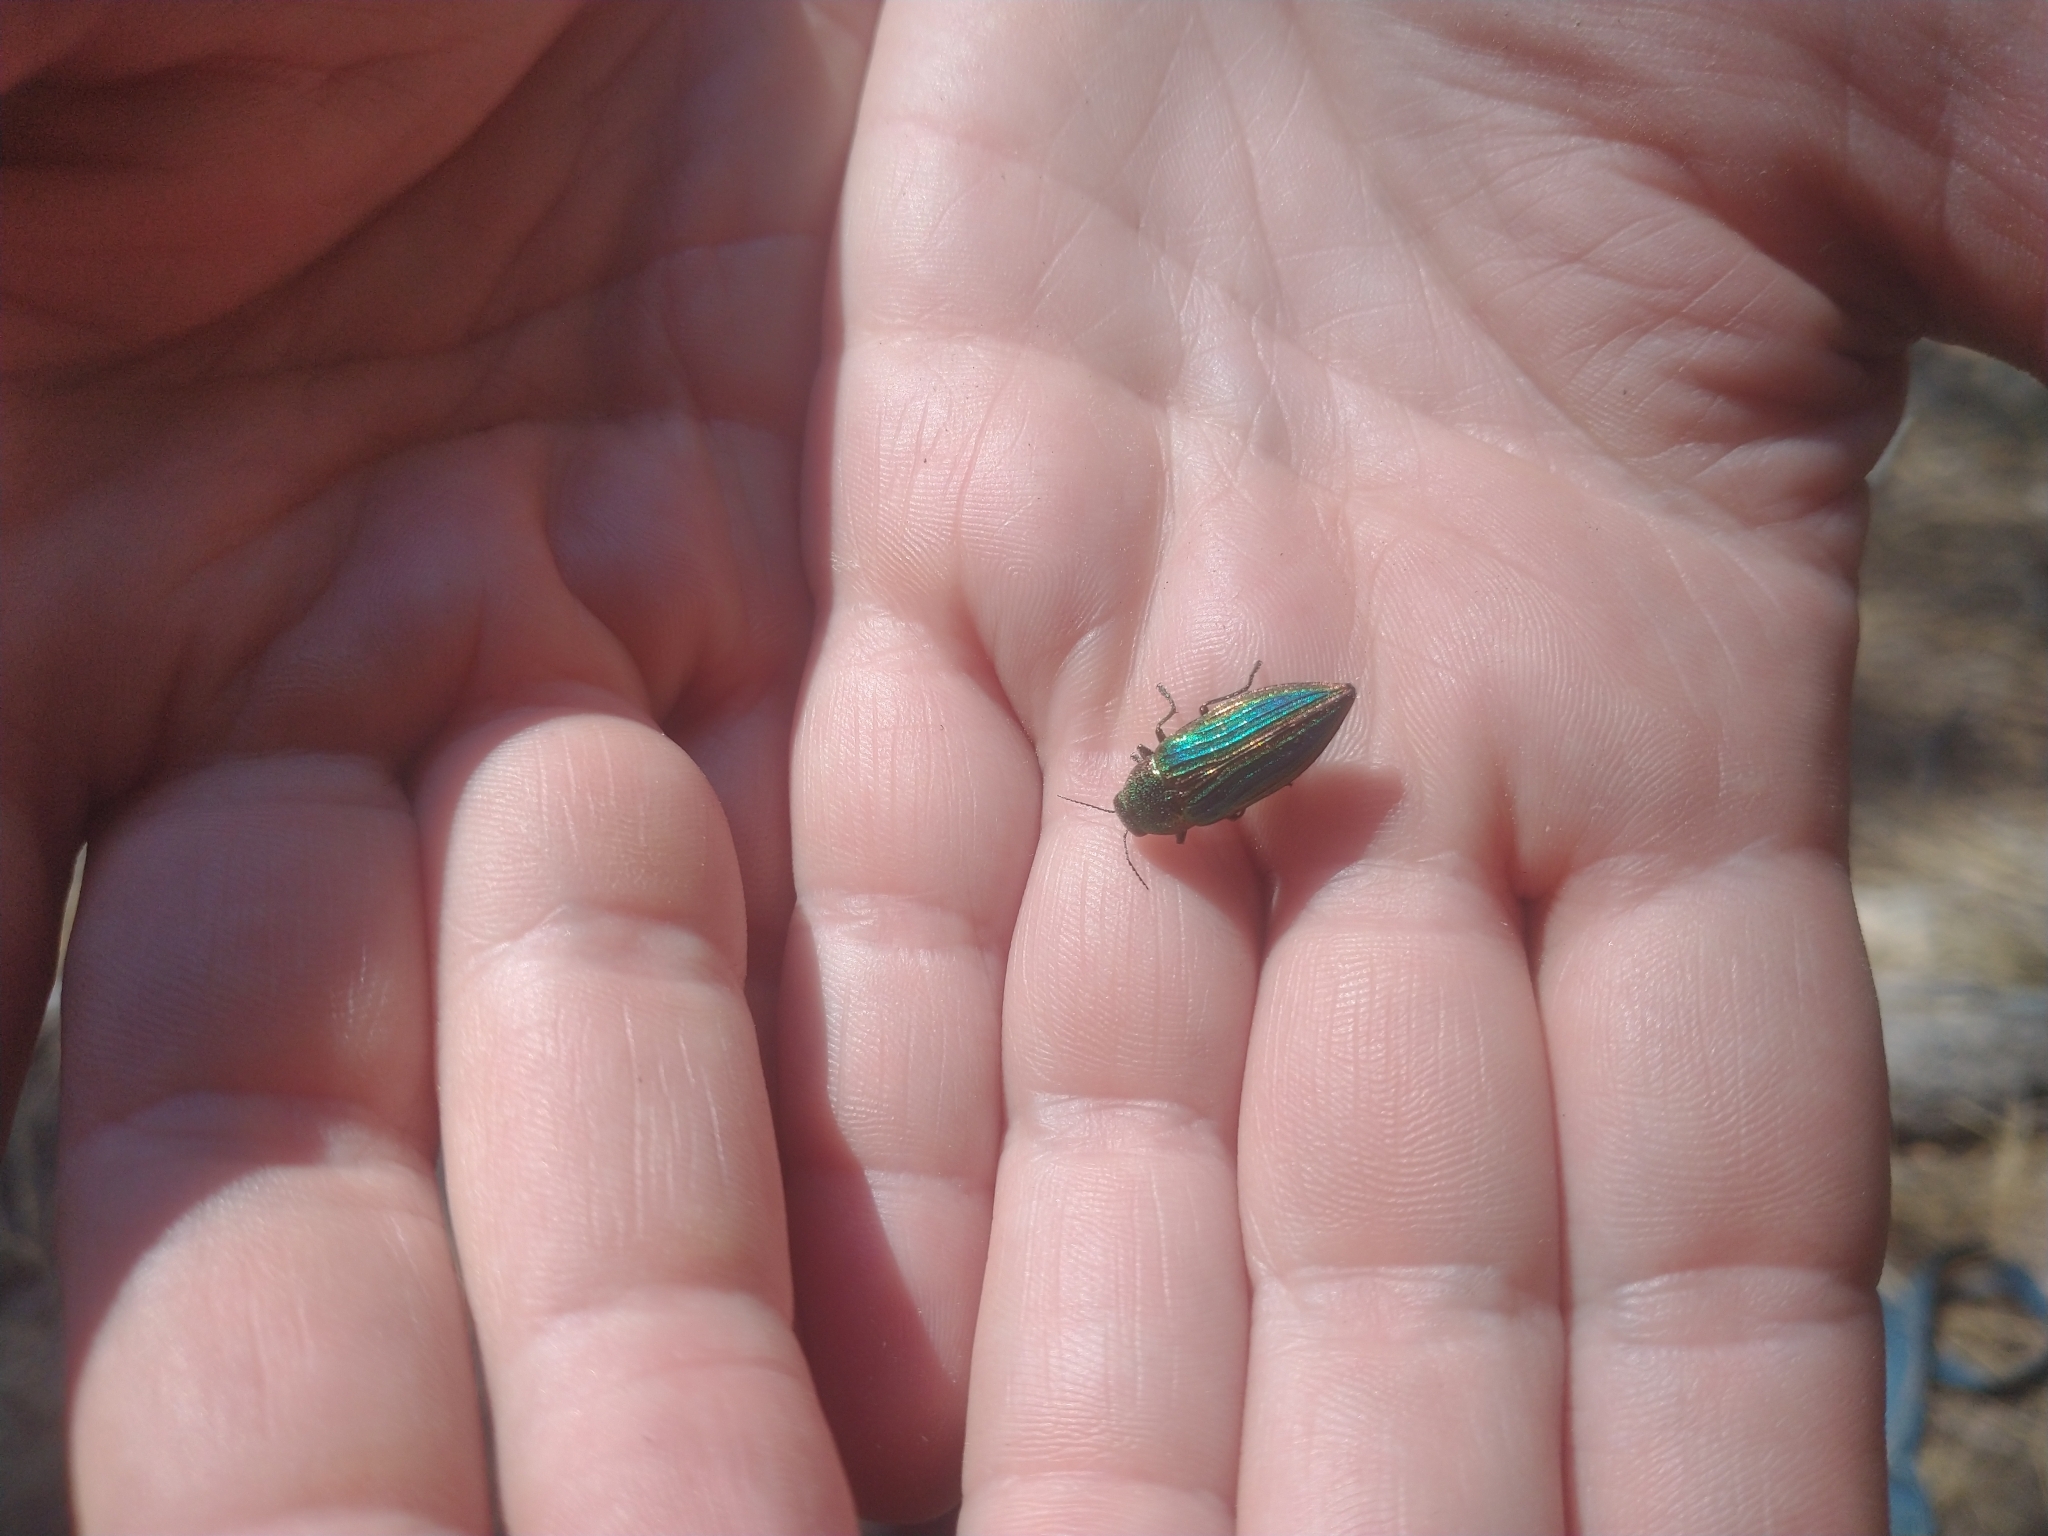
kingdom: Animalia
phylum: Arthropoda
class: Insecta
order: Coleoptera
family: Buprestidae
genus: Buprestis
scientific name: Buprestis aurulenta
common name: Golden buprestid
